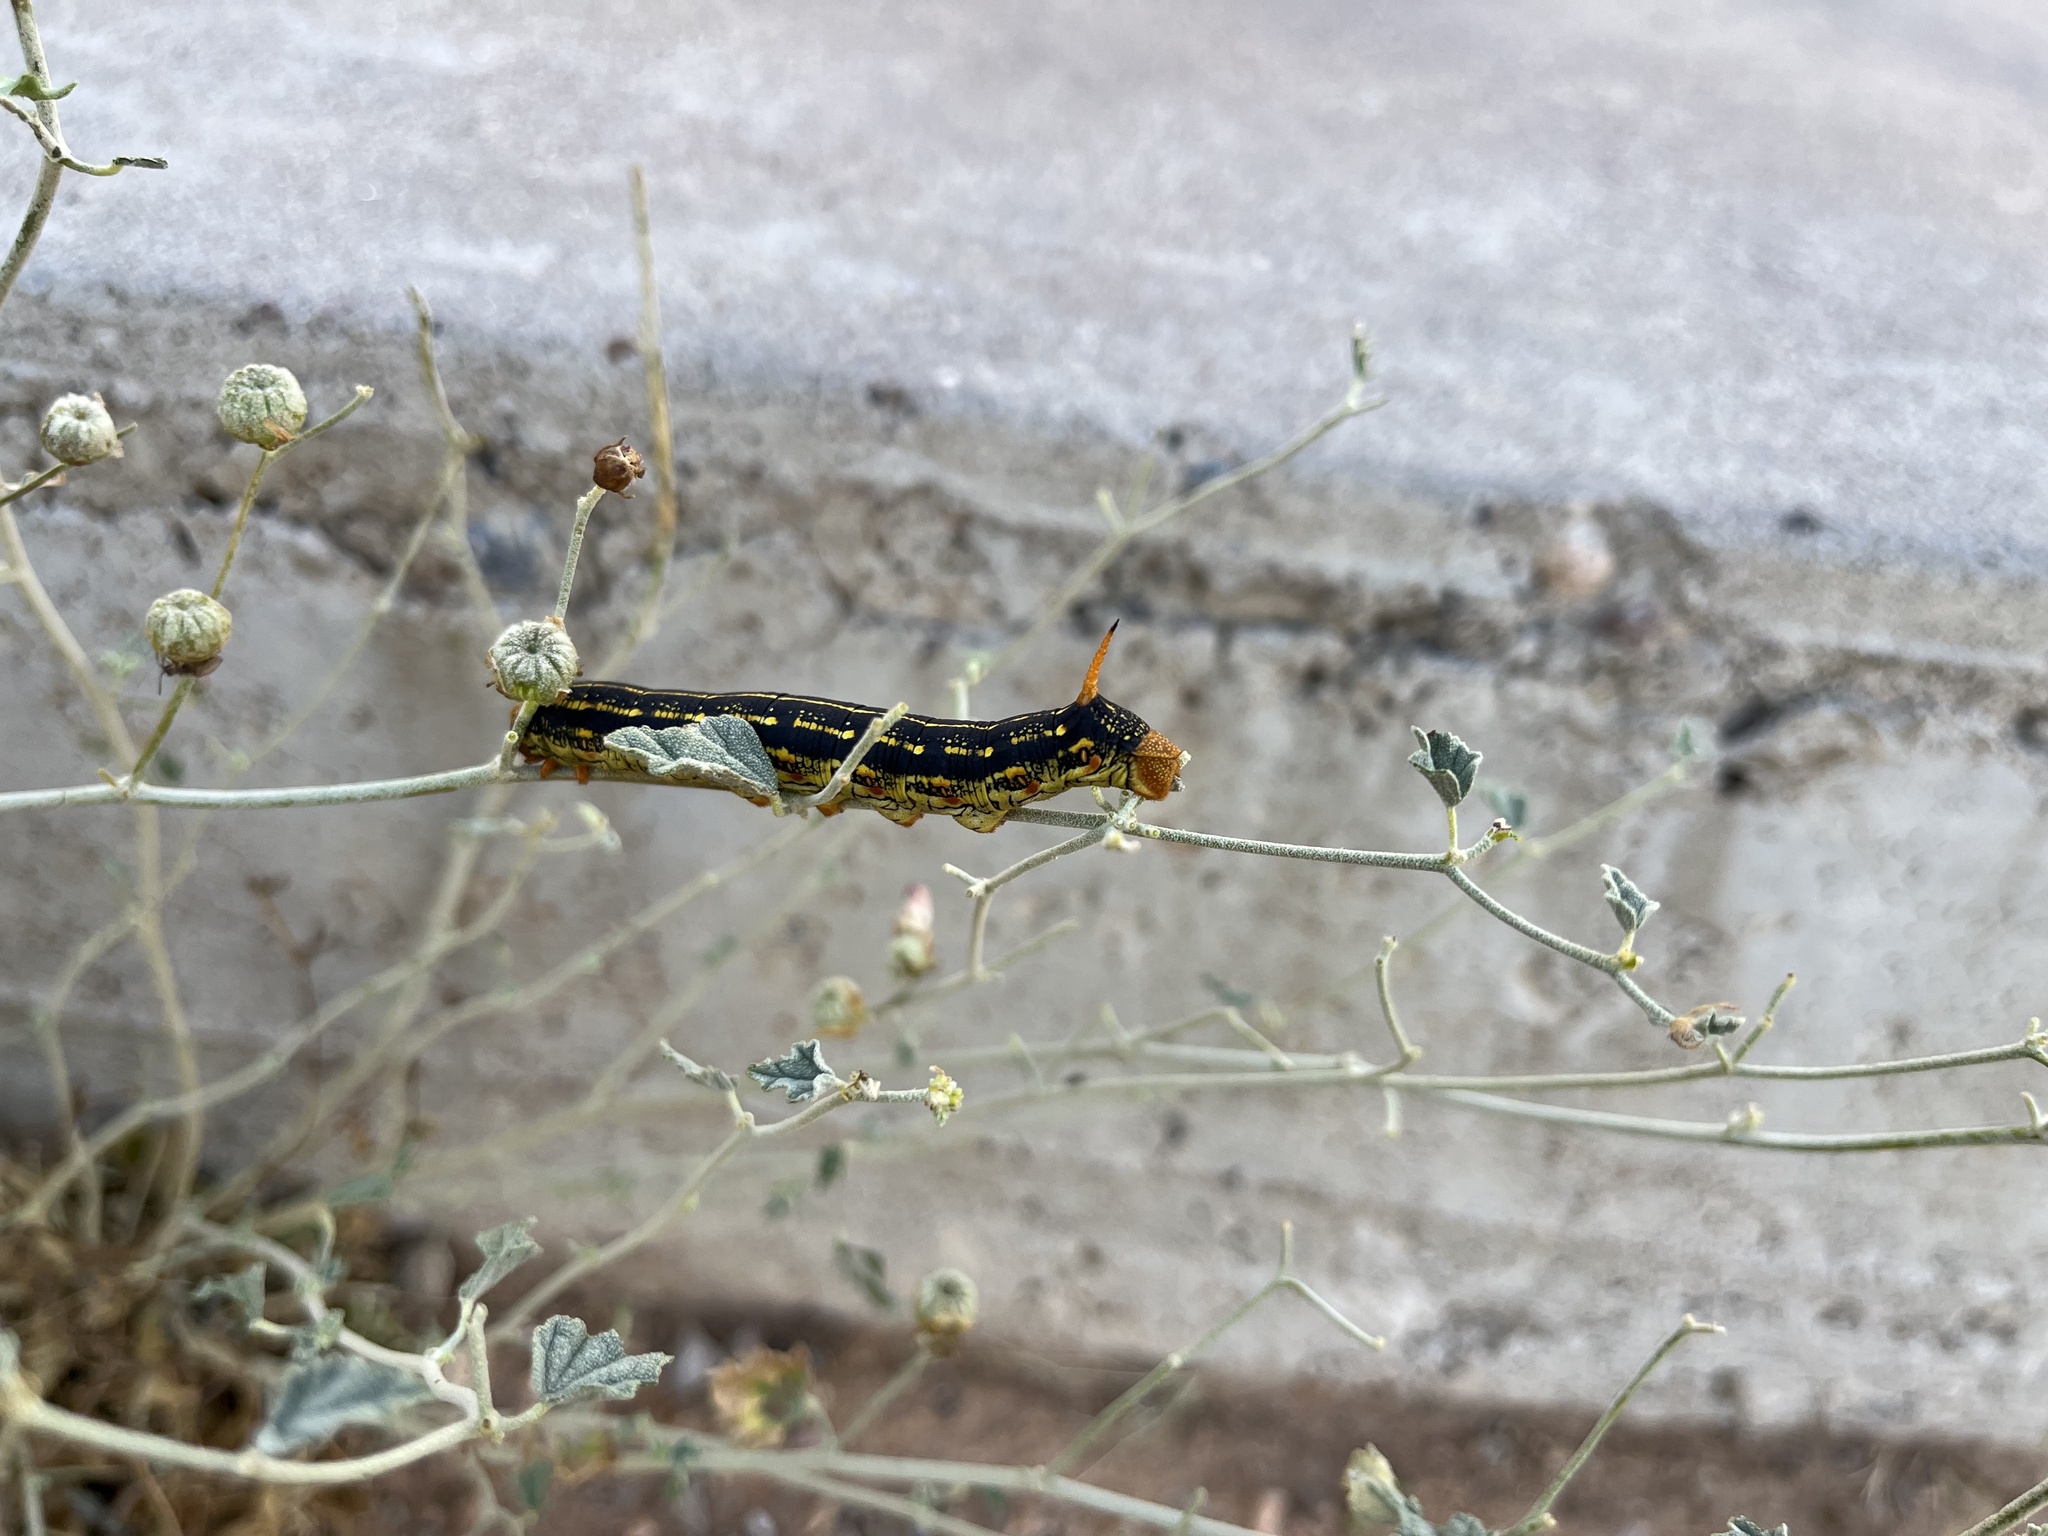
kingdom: Animalia
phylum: Arthropoda
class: Insecta
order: Lepidoptera
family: Sphingidae
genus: Hyles
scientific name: Hyles lineata
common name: White-lined sphinx
